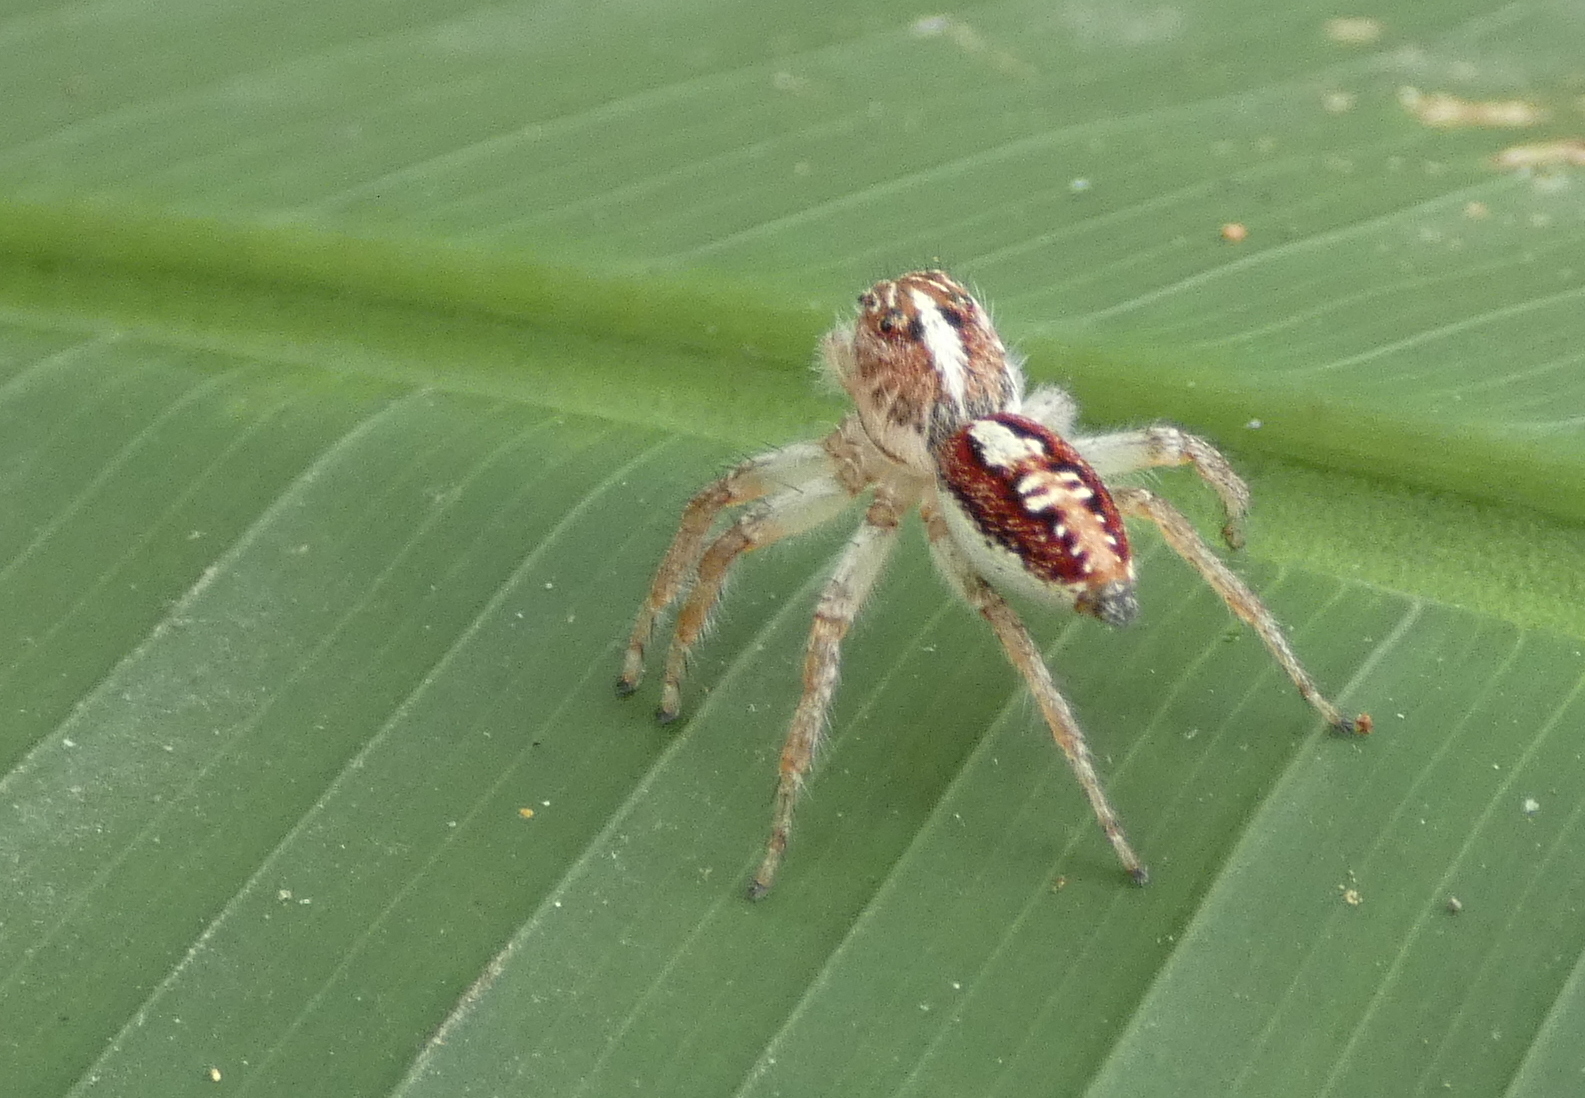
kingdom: Animalia
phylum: Arthropoda
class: Arachnida
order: Araneae
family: Salticidae
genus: Frigga
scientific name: Frigga
